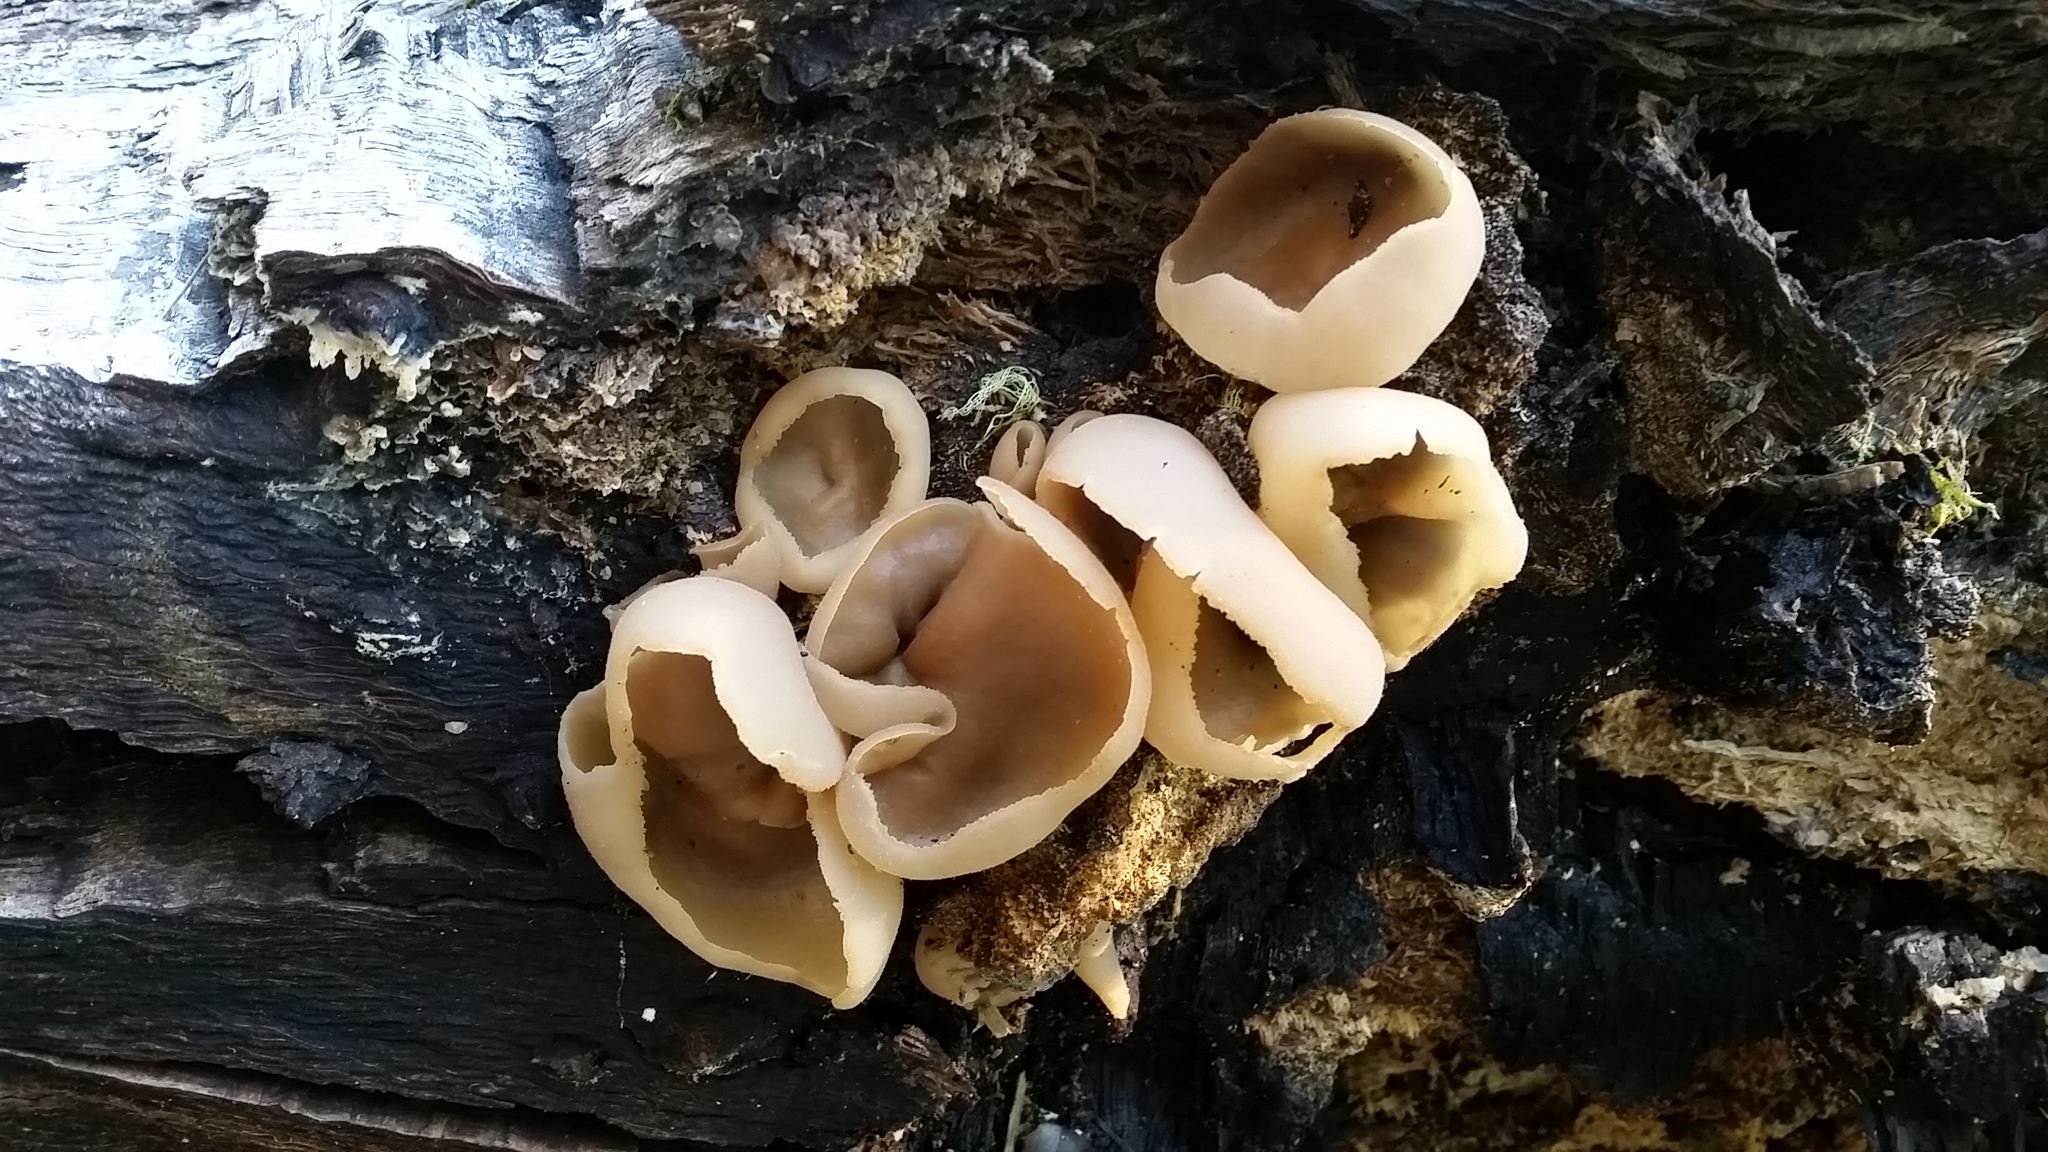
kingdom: Fungi
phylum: Ascomycota
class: Pezizomycetes
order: Pezizales
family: Pezizaceae
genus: Peziza
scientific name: Peziza varia
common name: Layered cup
